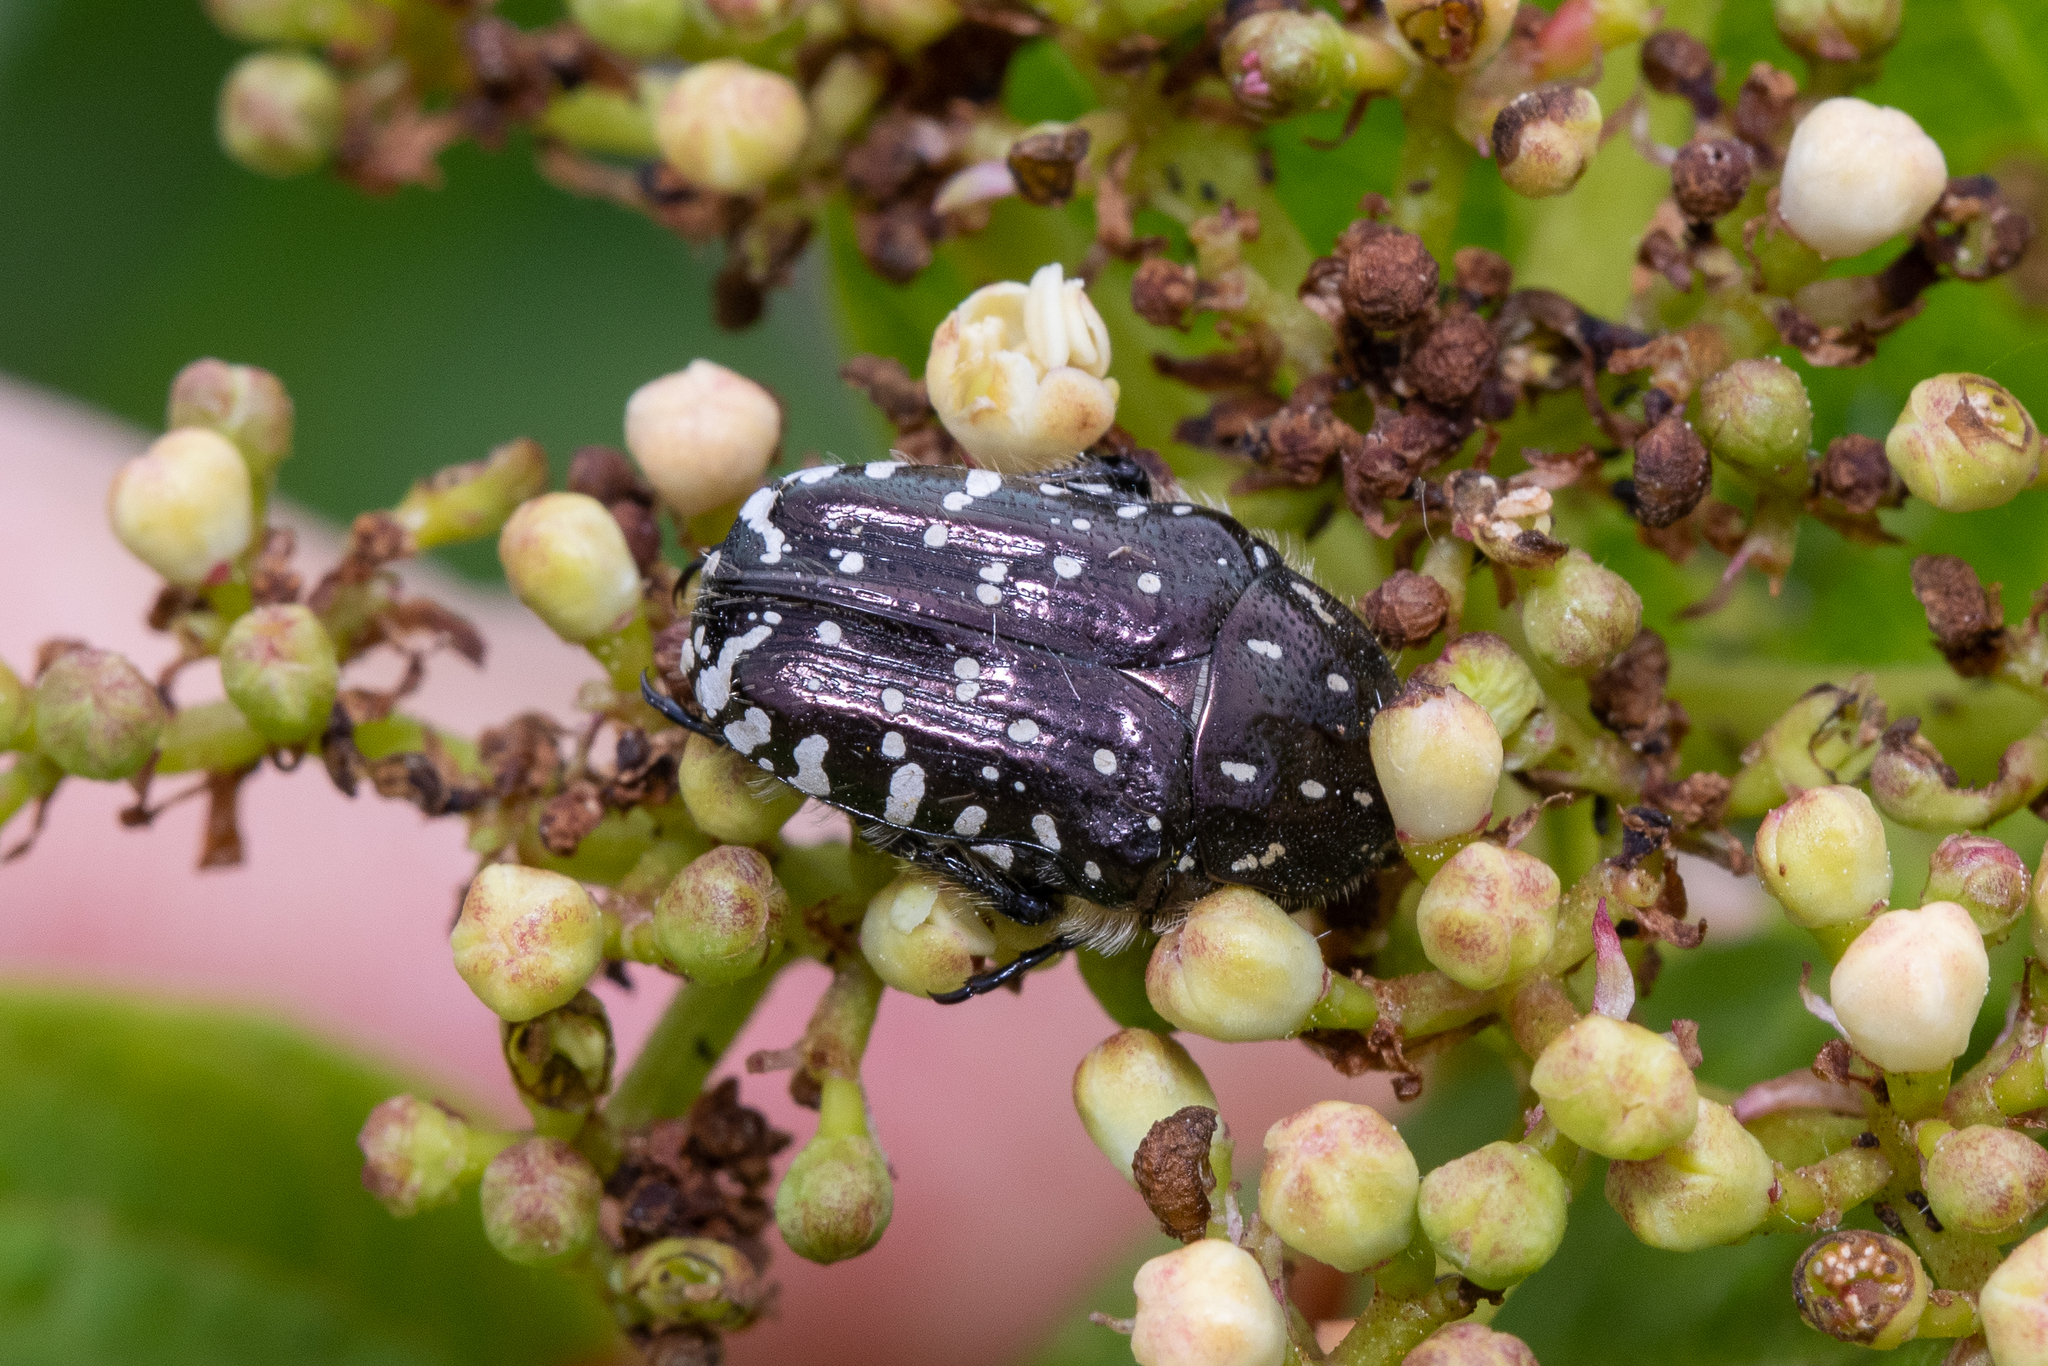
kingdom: Animalia
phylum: Arthropoda
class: Insecta
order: Coleoptera
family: Scarabaeidae
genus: Oxythyrea
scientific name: Oxythyrea funesta
